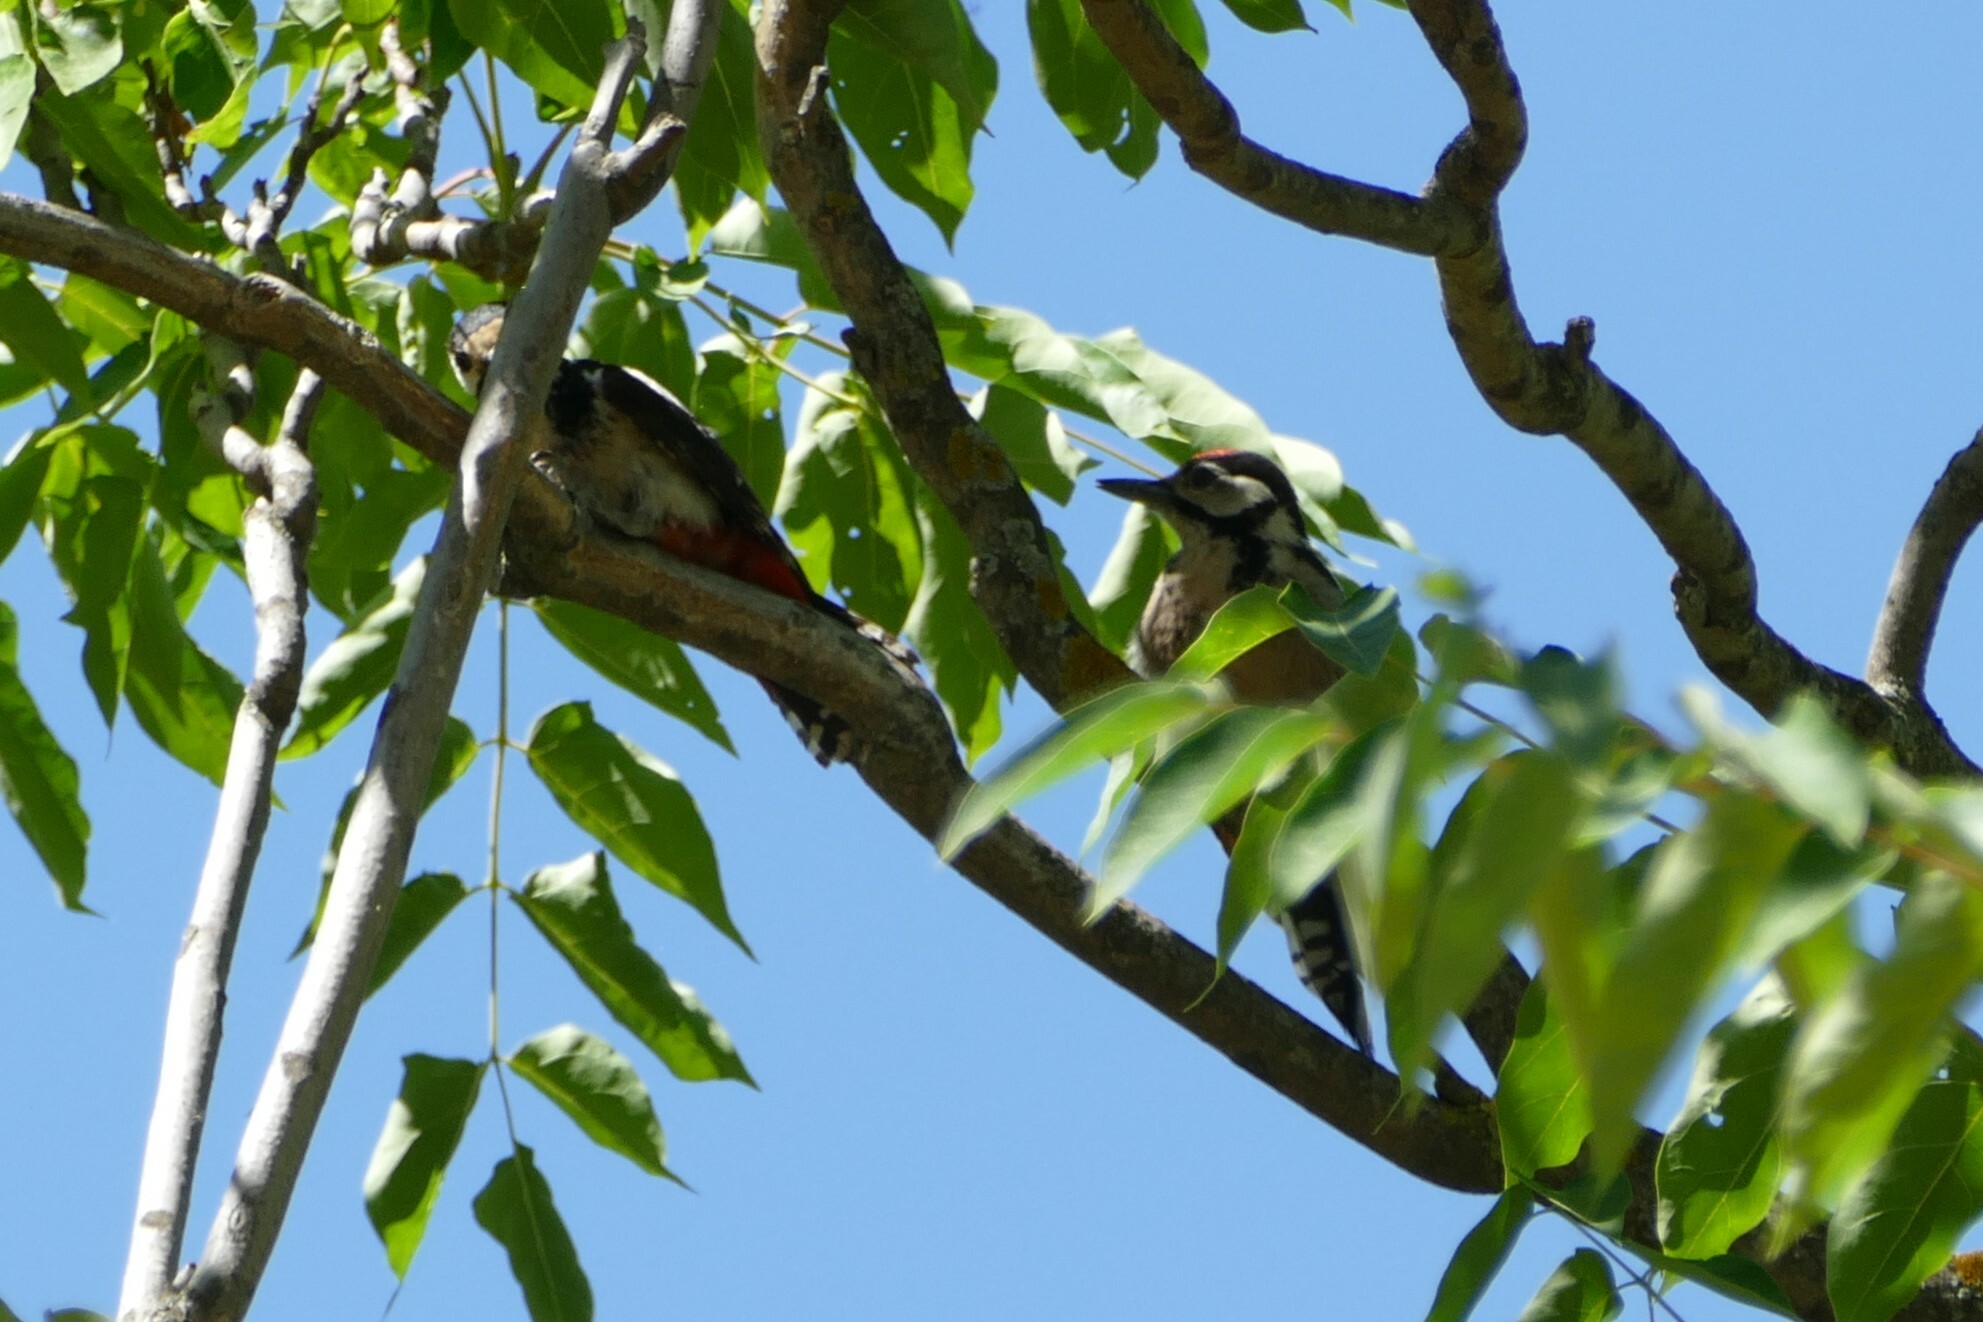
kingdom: Animalia
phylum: Chordata
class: Aves
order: Piciformes
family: Picidae
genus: Dendrocopos
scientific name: Dendrocopos major
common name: Great spotted woodpecker
